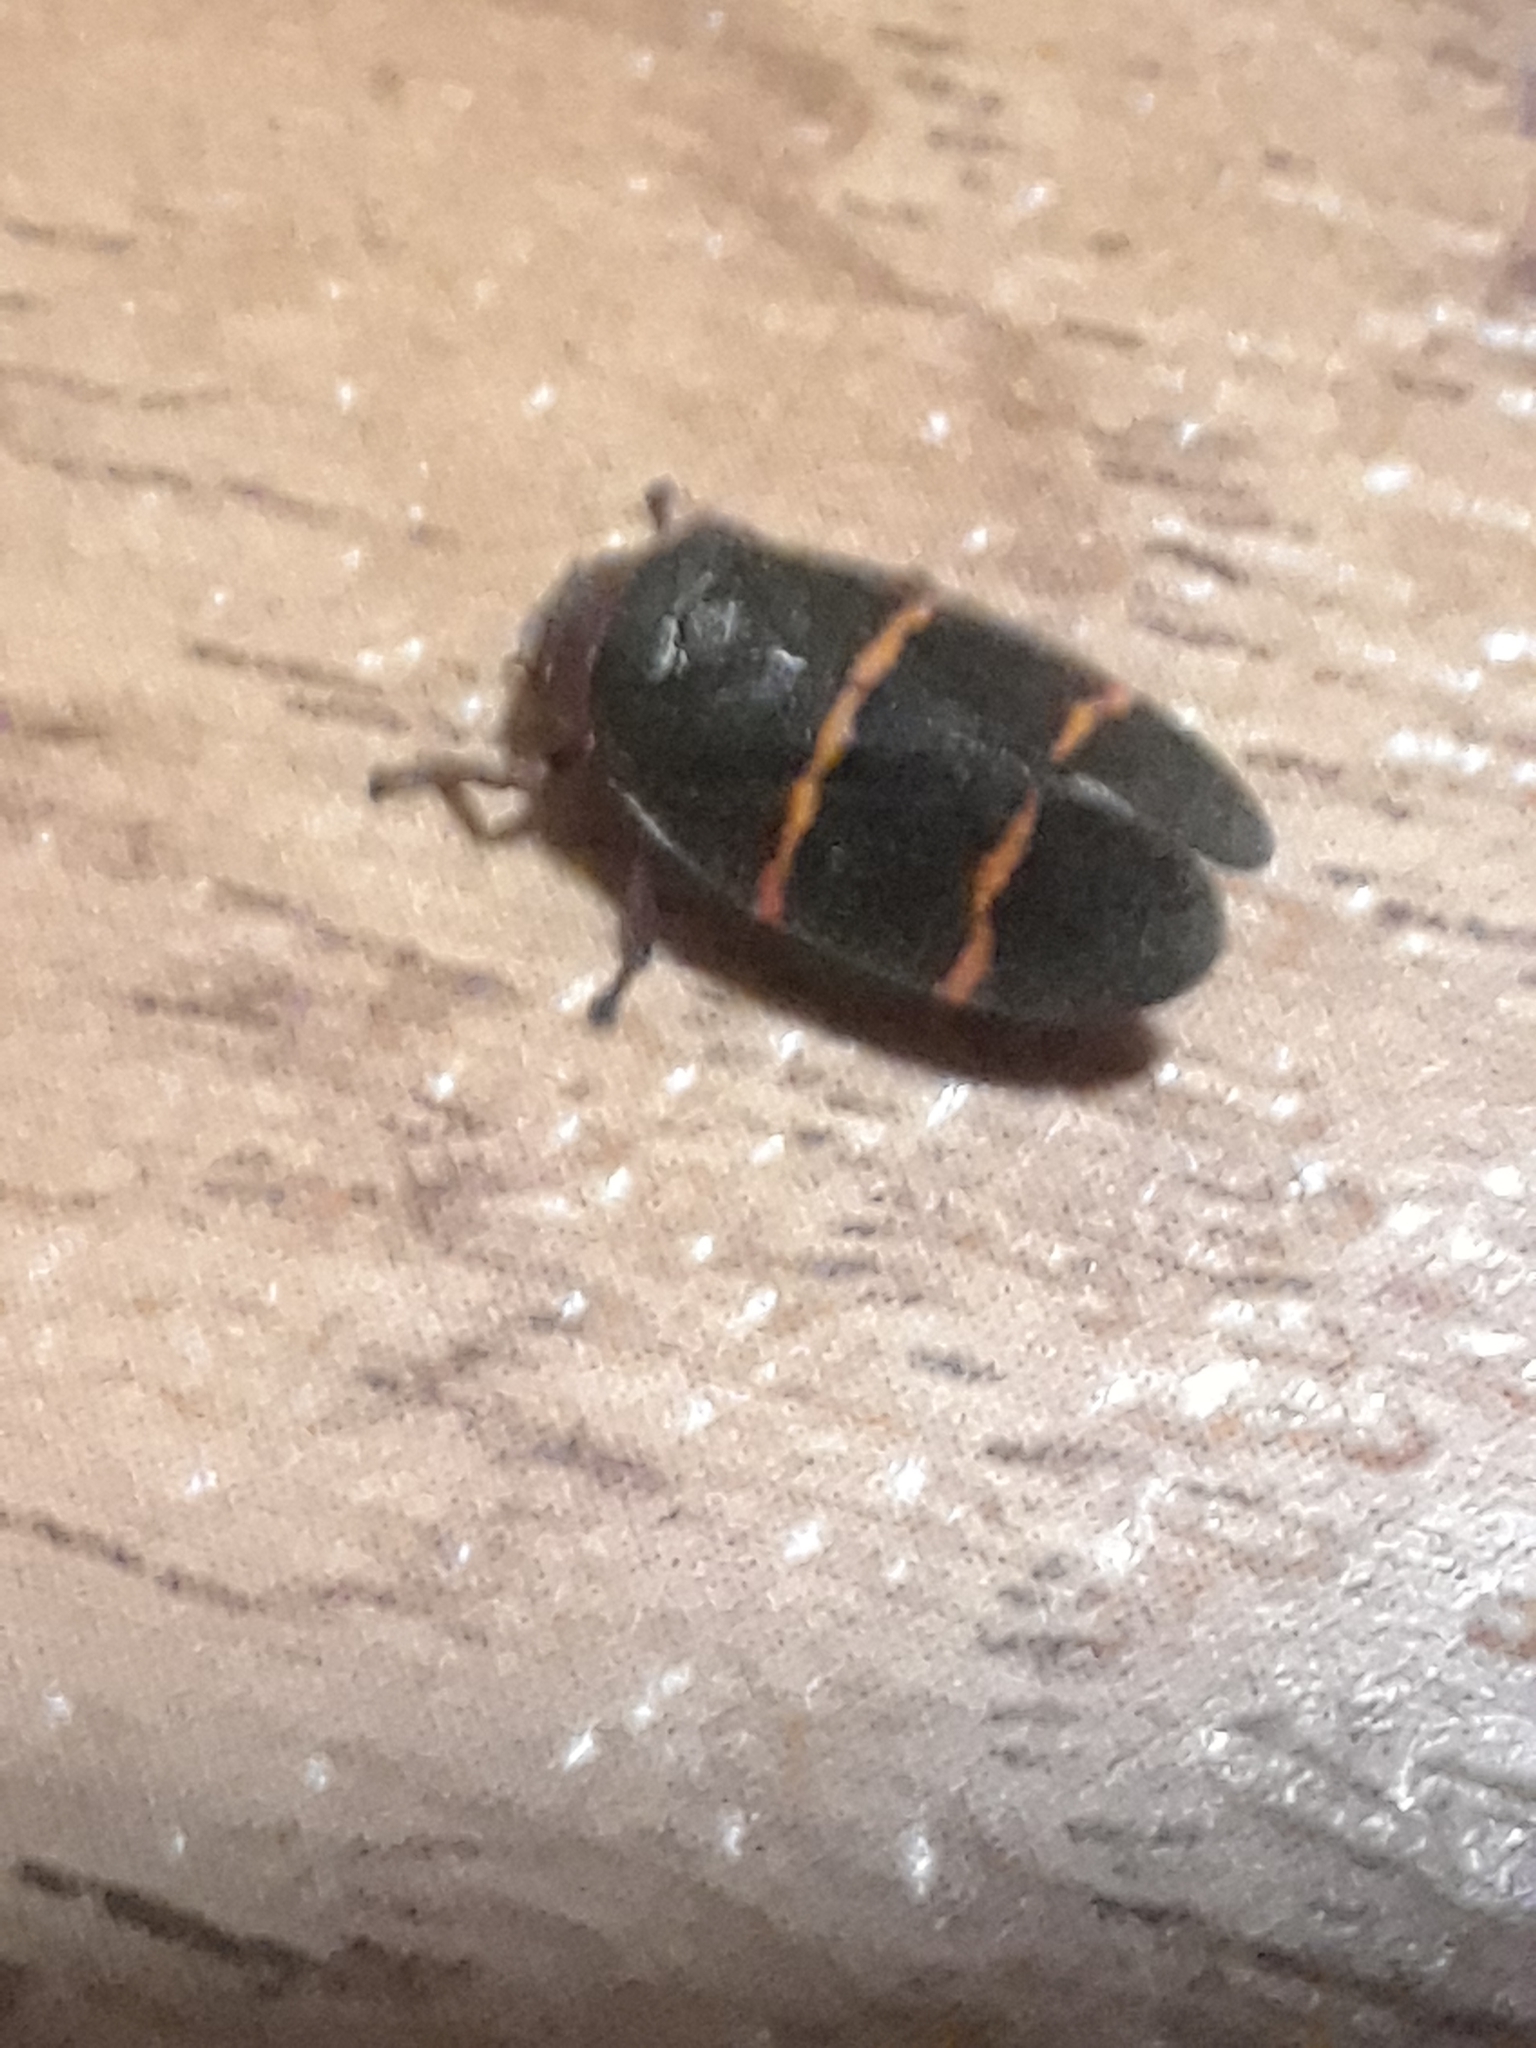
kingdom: Animalia
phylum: Arthropoda
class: Insecta
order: Hemiptera
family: Cercopidae
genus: Prosapia
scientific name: Prosapia bicincta
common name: Twolined spittlebug
